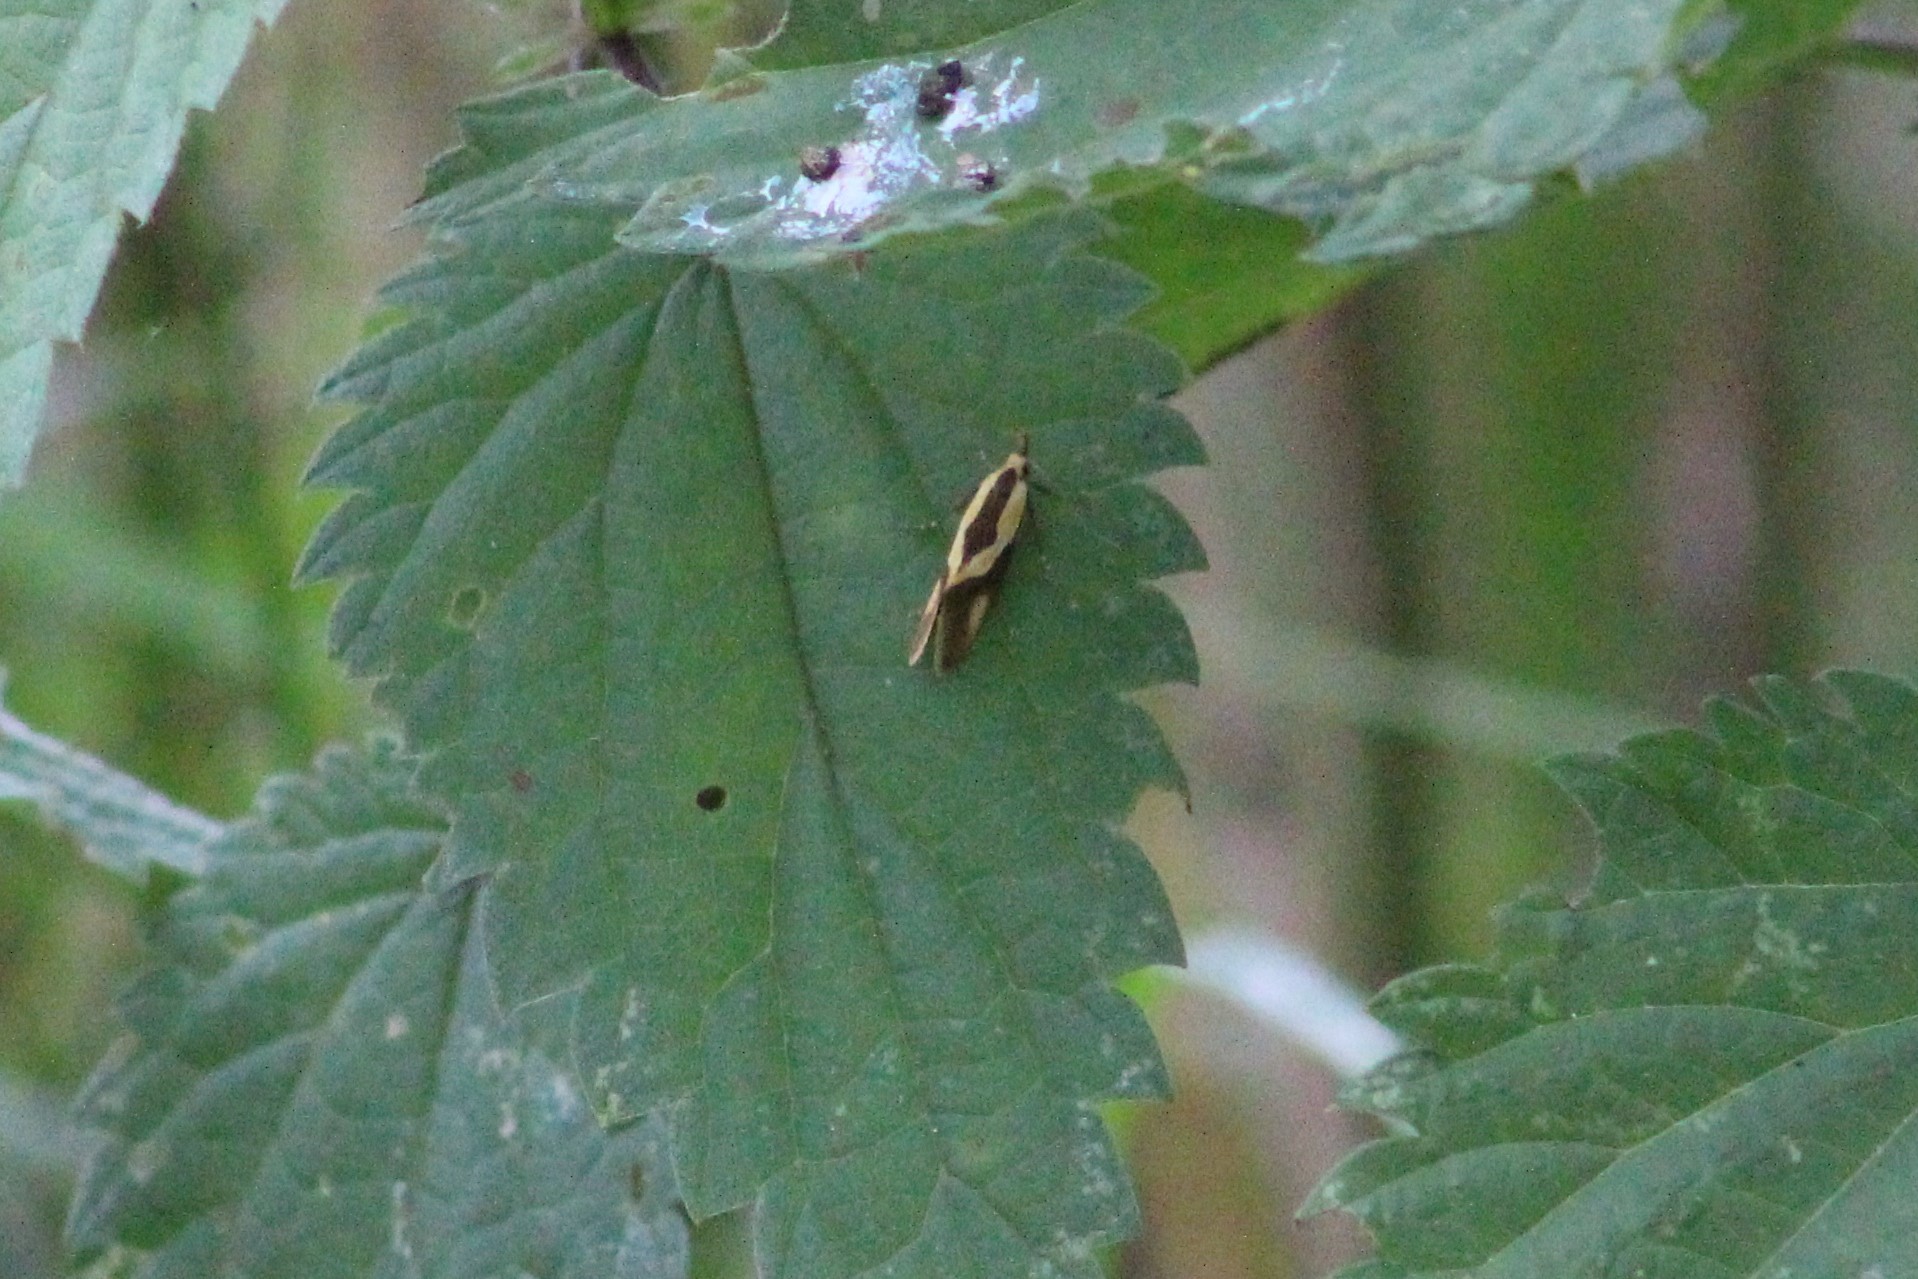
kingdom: Animalia
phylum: Arthropoda
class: Insecta
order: Lepidoptera
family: Oecophoridae
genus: Harpella
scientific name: Harpella forficella
